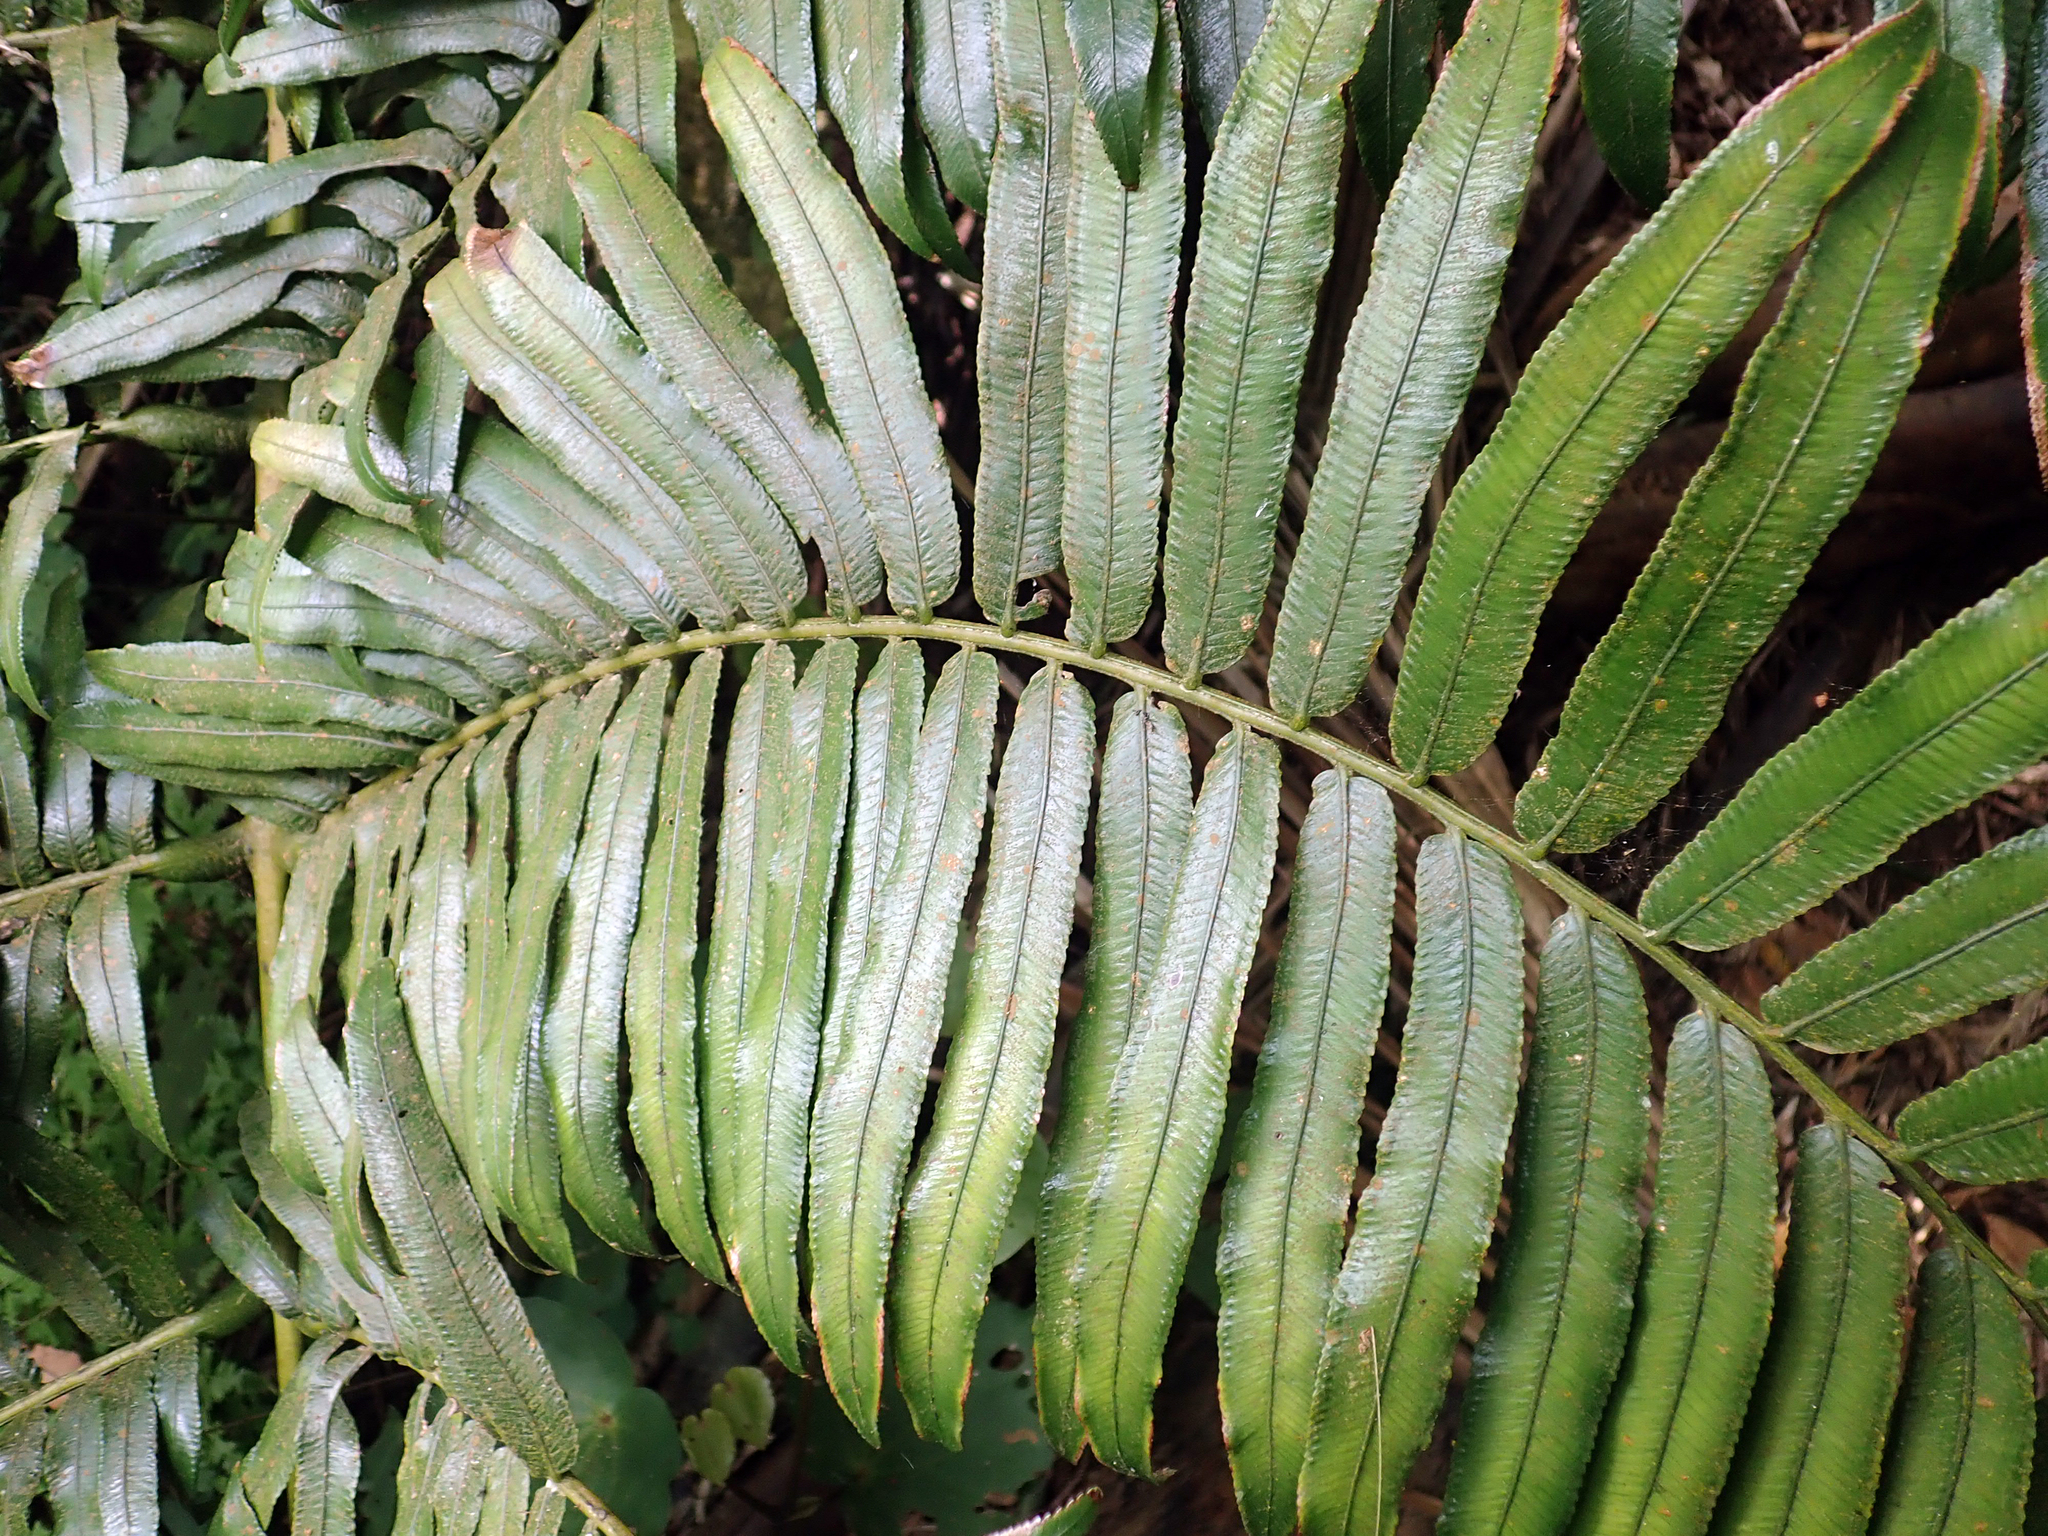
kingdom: Plantae
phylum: Tracheophyta
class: Polypodiopsida
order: Marattiales
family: Marattiaceae
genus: Ptisana
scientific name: Ptisana salicina
